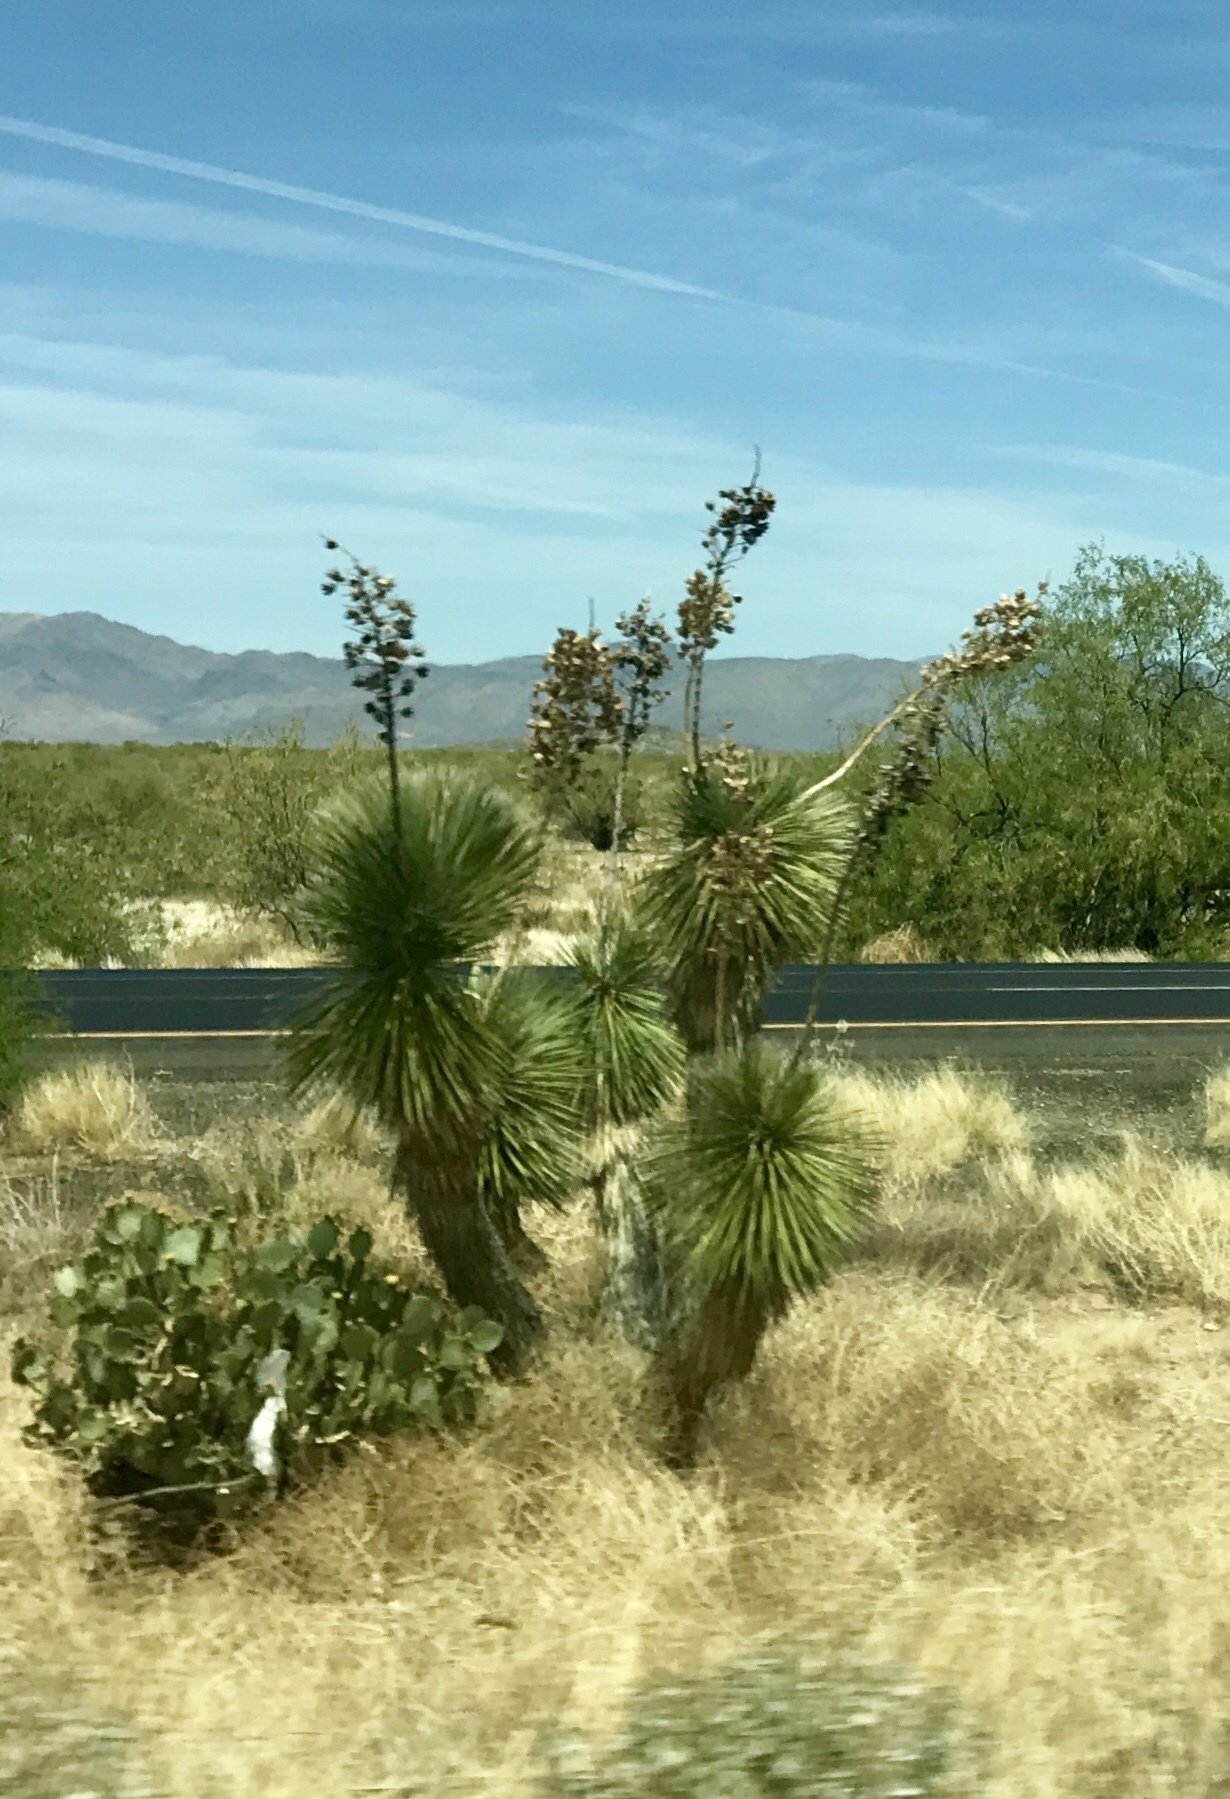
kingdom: Plantae
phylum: Tracheophyta
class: Liliopsida
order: Asparagales
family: Asparagaceae
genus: Yucca
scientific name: Yucca elata
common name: Palmella
